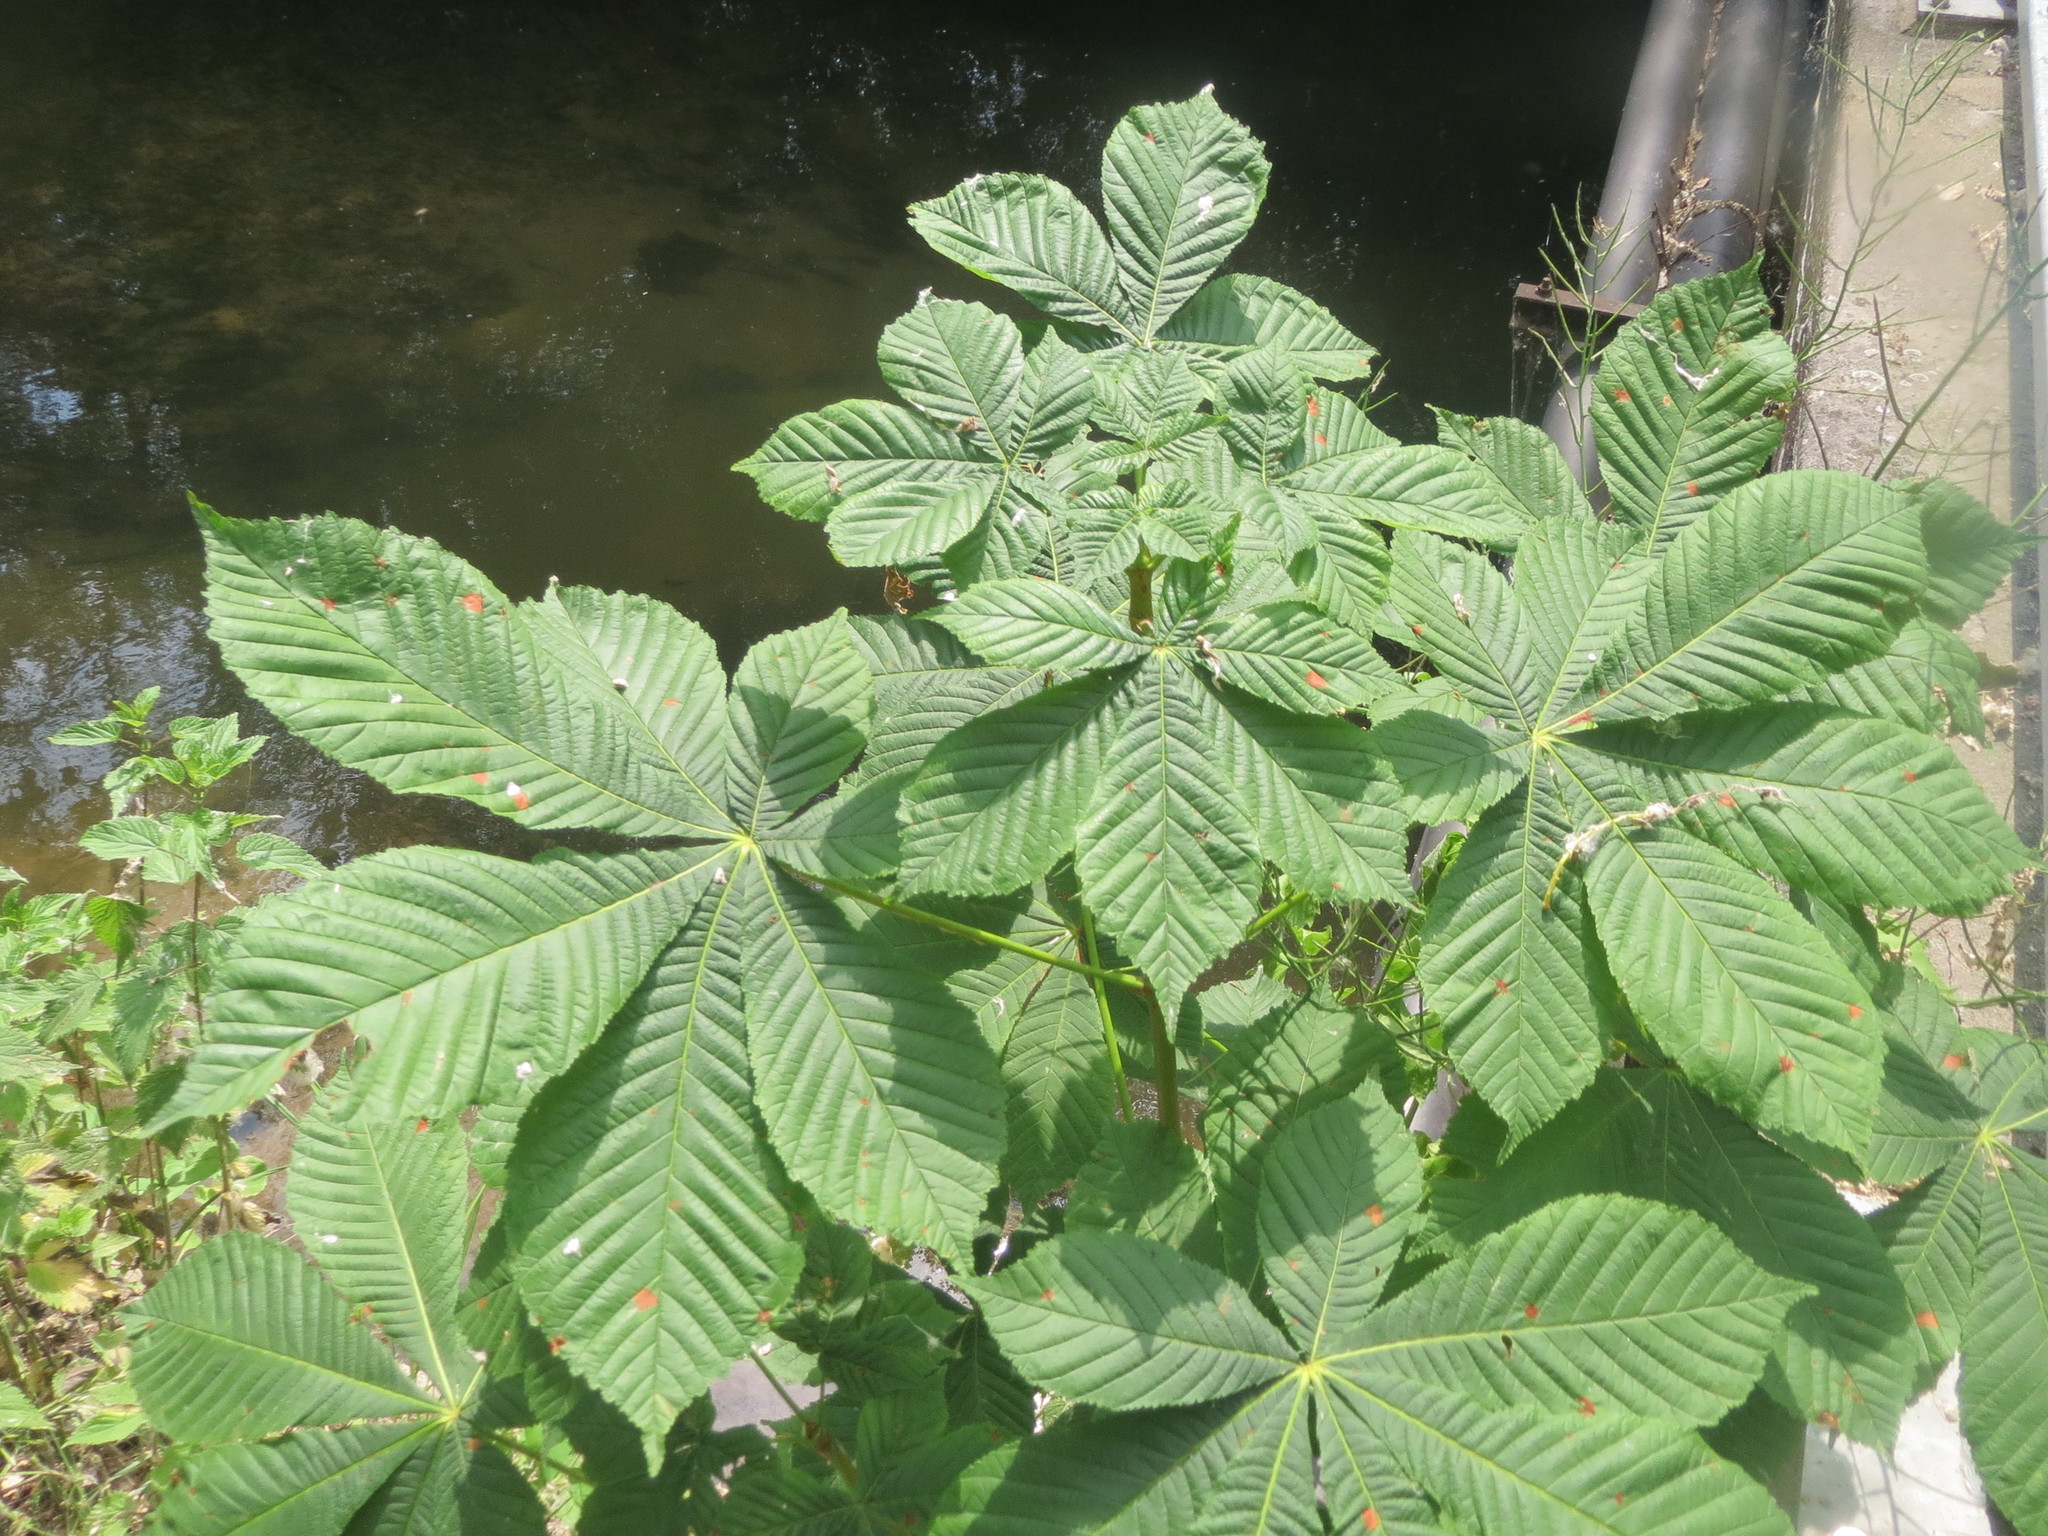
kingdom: Plantae
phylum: Tracheophyta
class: Magnoliopsida
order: Sapindales
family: Sapindaceae
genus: Aesculus
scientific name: Aesculus hippocastanum
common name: Horse-chestnut
